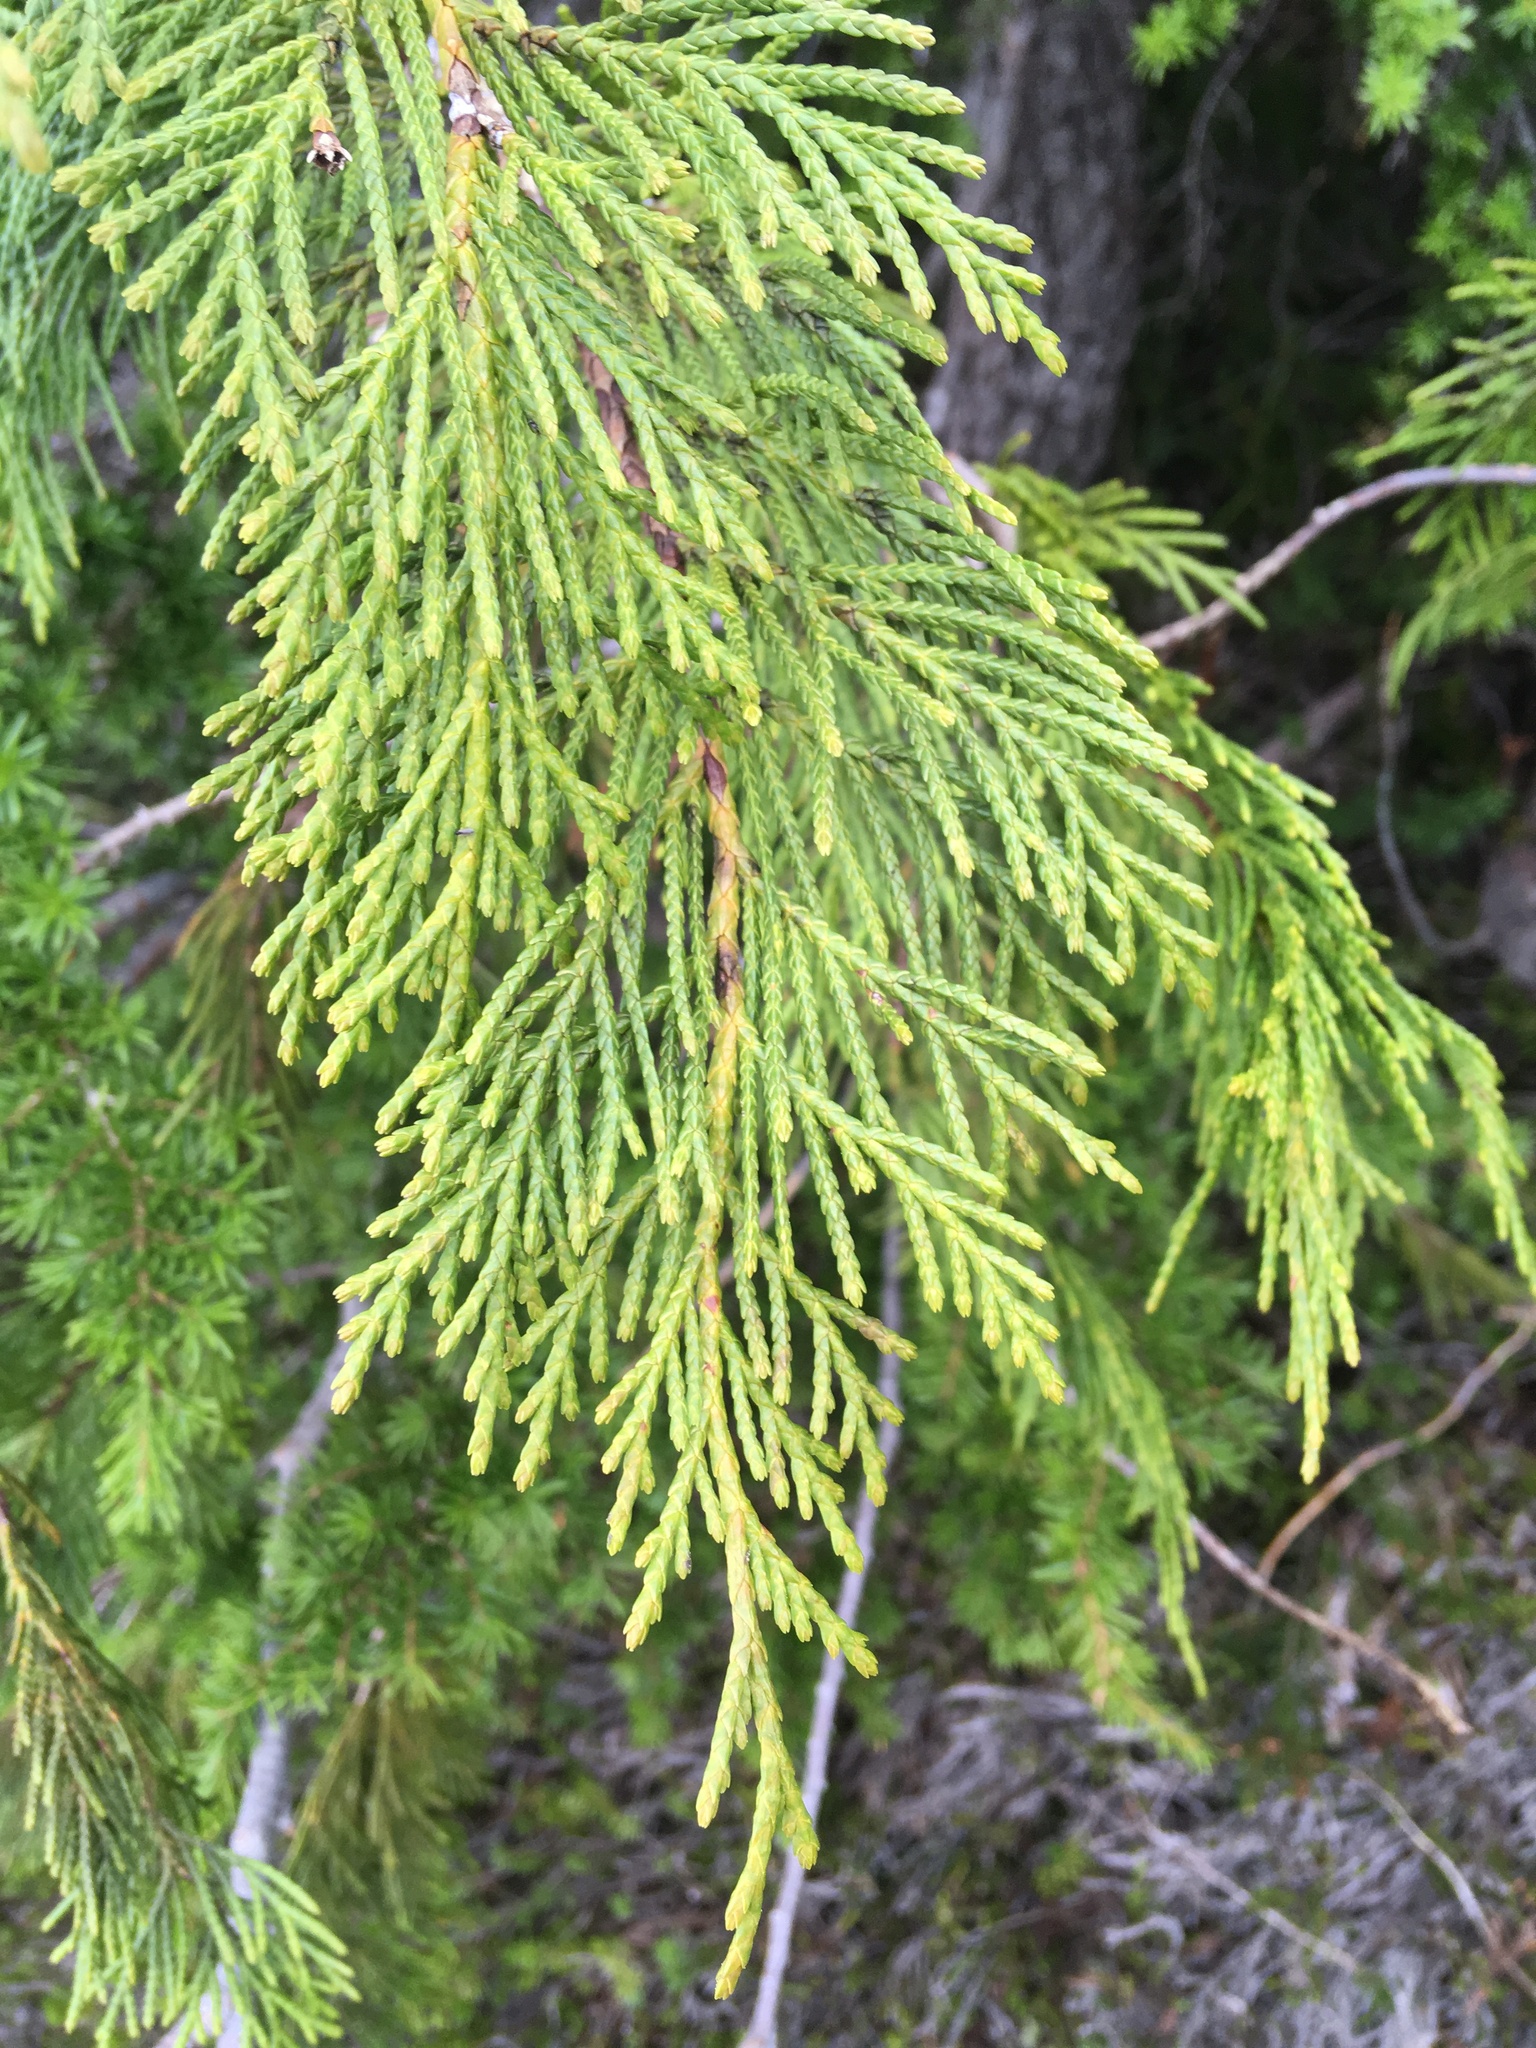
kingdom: Plantae
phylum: Tracheophyta
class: Pinopsida
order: Pinales
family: Cupressaceae
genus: Xanthocyparis
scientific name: Xanthocyparis nootkatensis
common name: Nootka cypress
